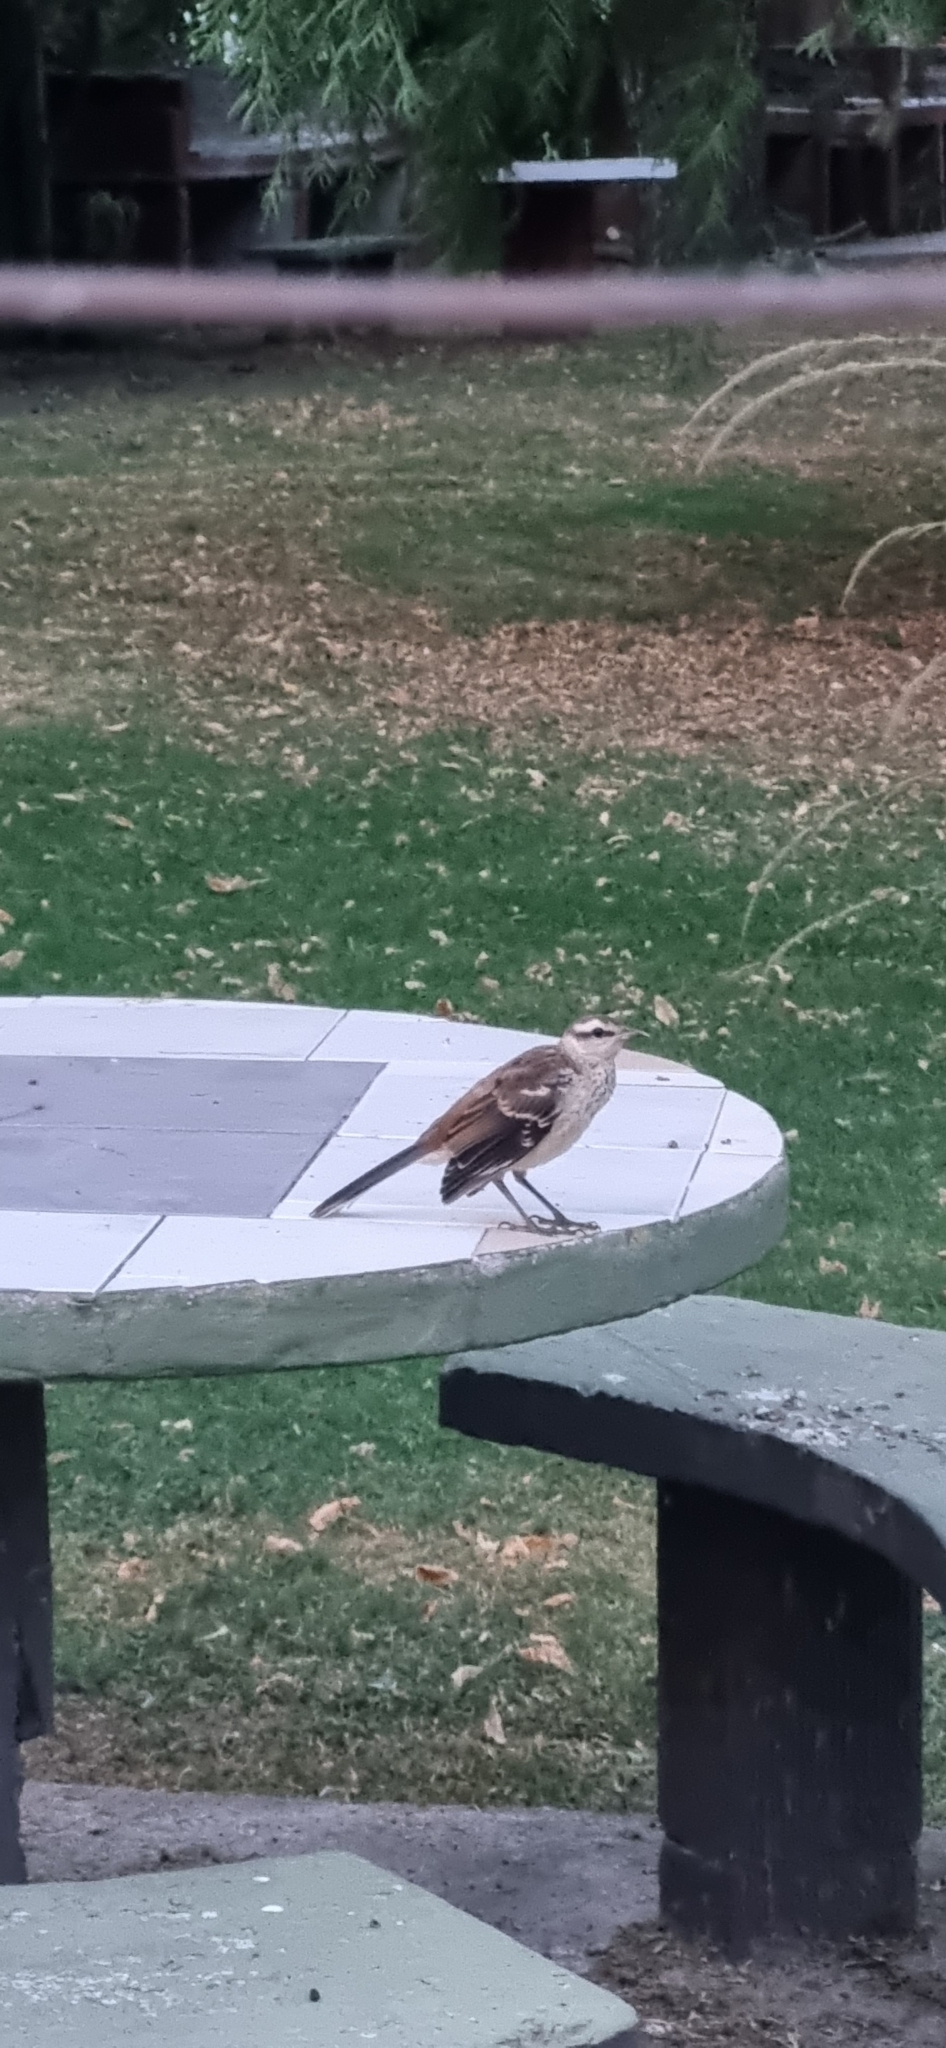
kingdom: Animalia
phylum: Chordata
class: Aves
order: Passeriformes
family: Mimidae
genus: Mimus
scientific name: Mimus saturninus
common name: Chalk-browed mockingbird
